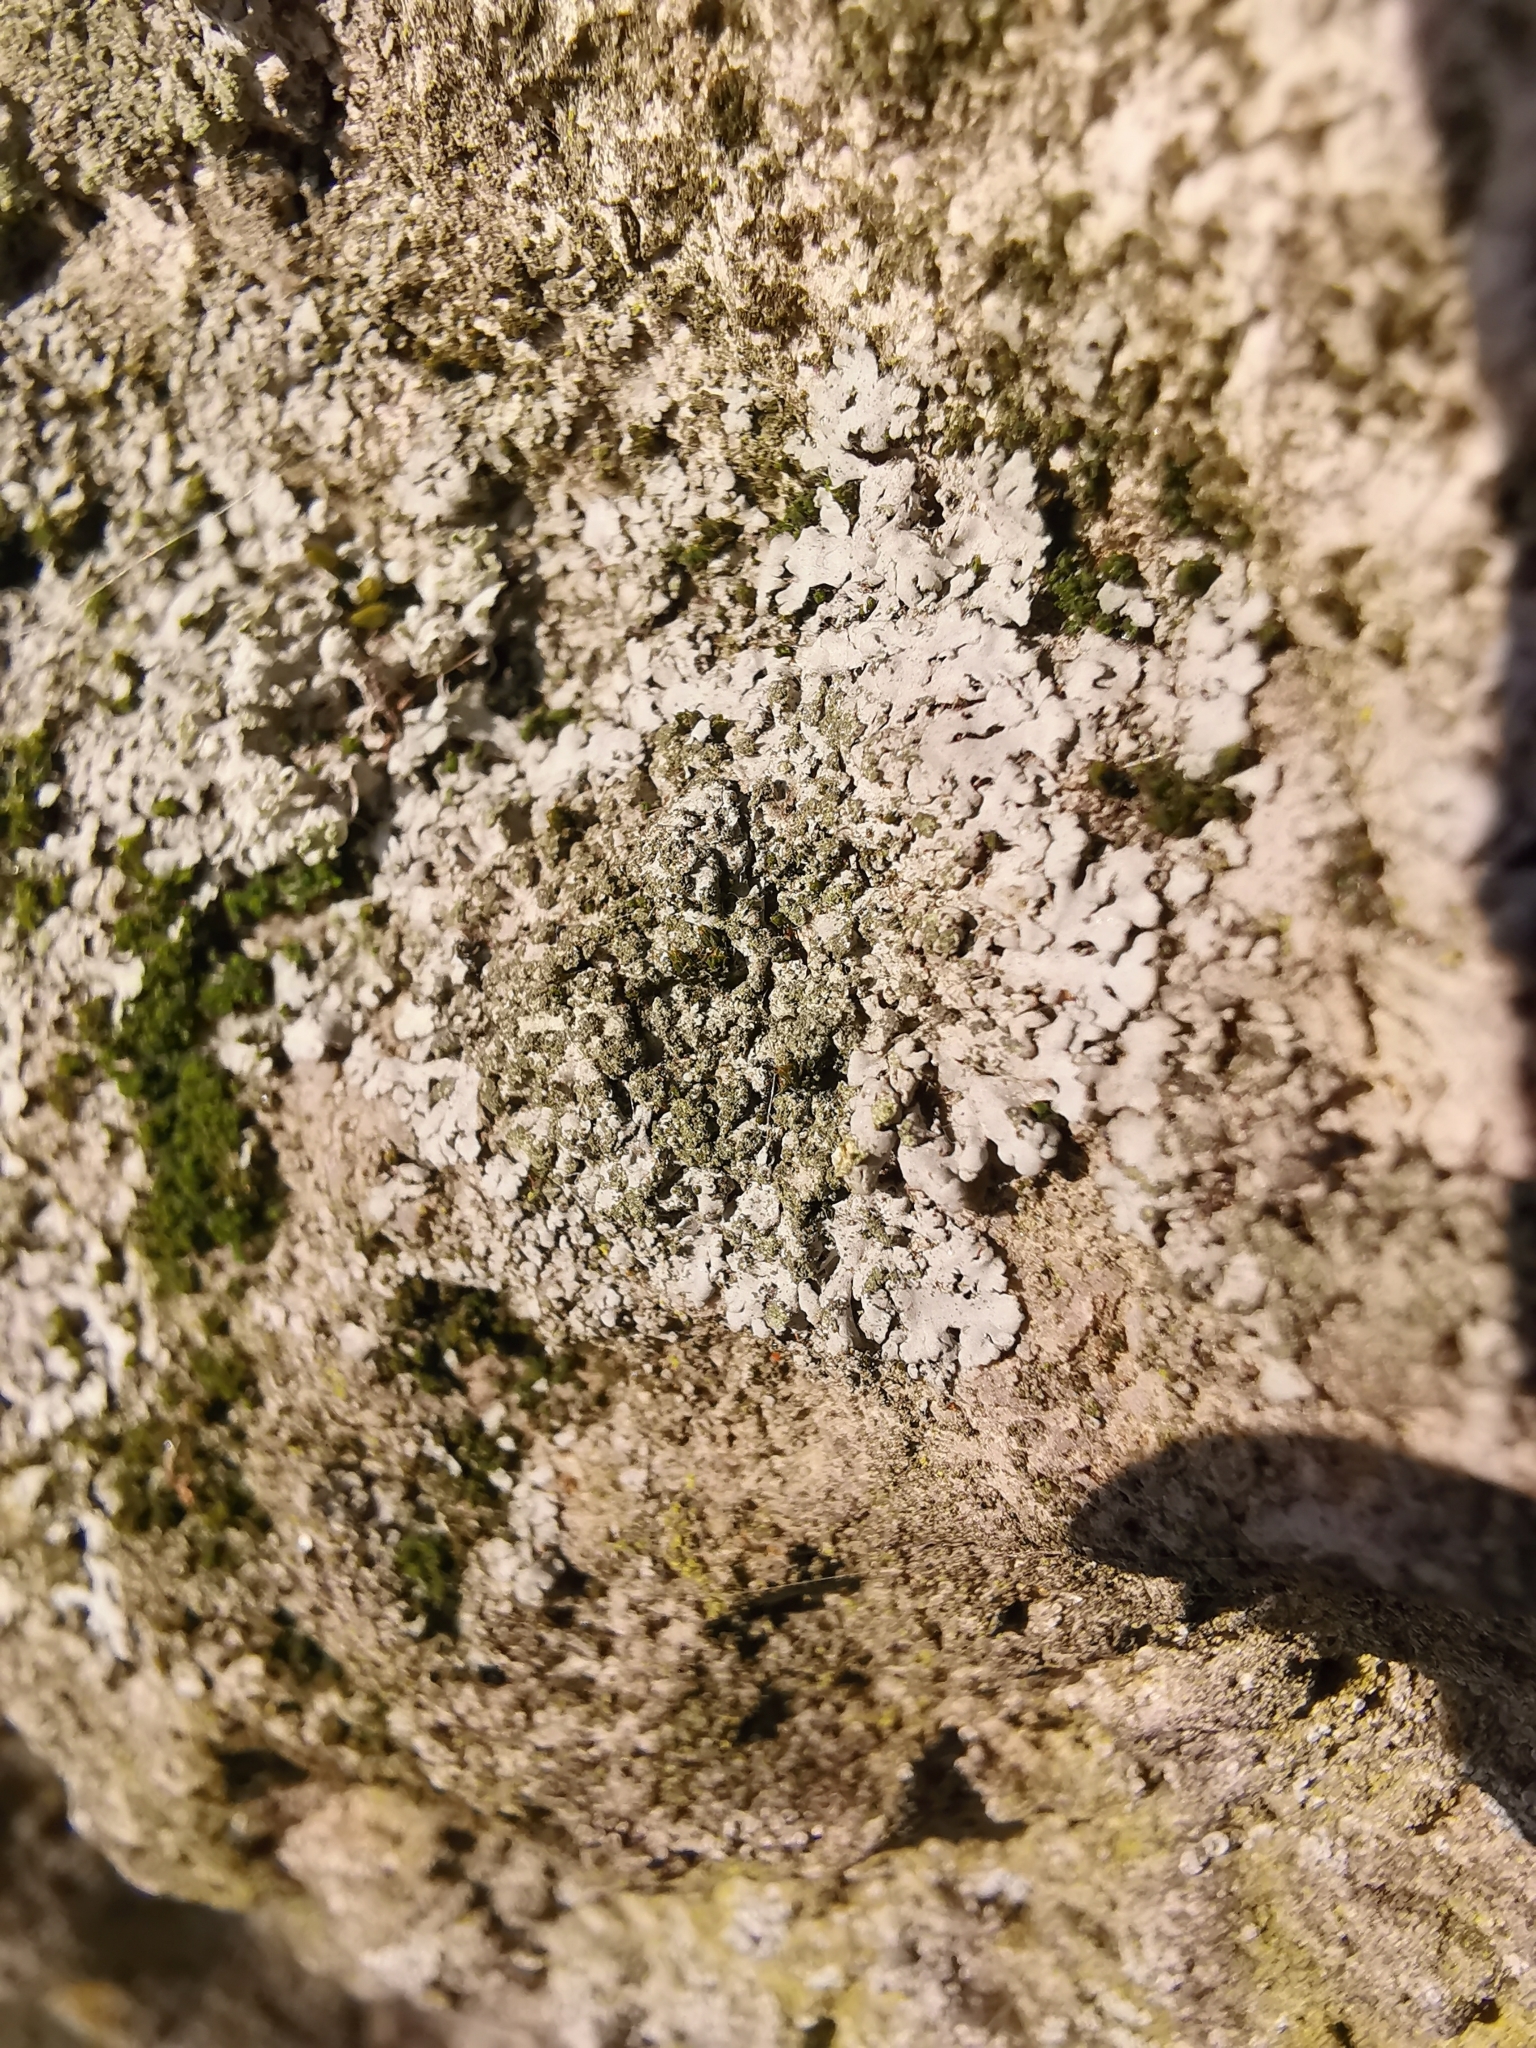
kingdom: Fungi
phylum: Ascomycota
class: Lecanoromycetes
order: Caliciales
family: Physciaceae
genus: Phaeophyscia
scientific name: Phaeophyscia orbicularis
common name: Mealy shadow lichen
